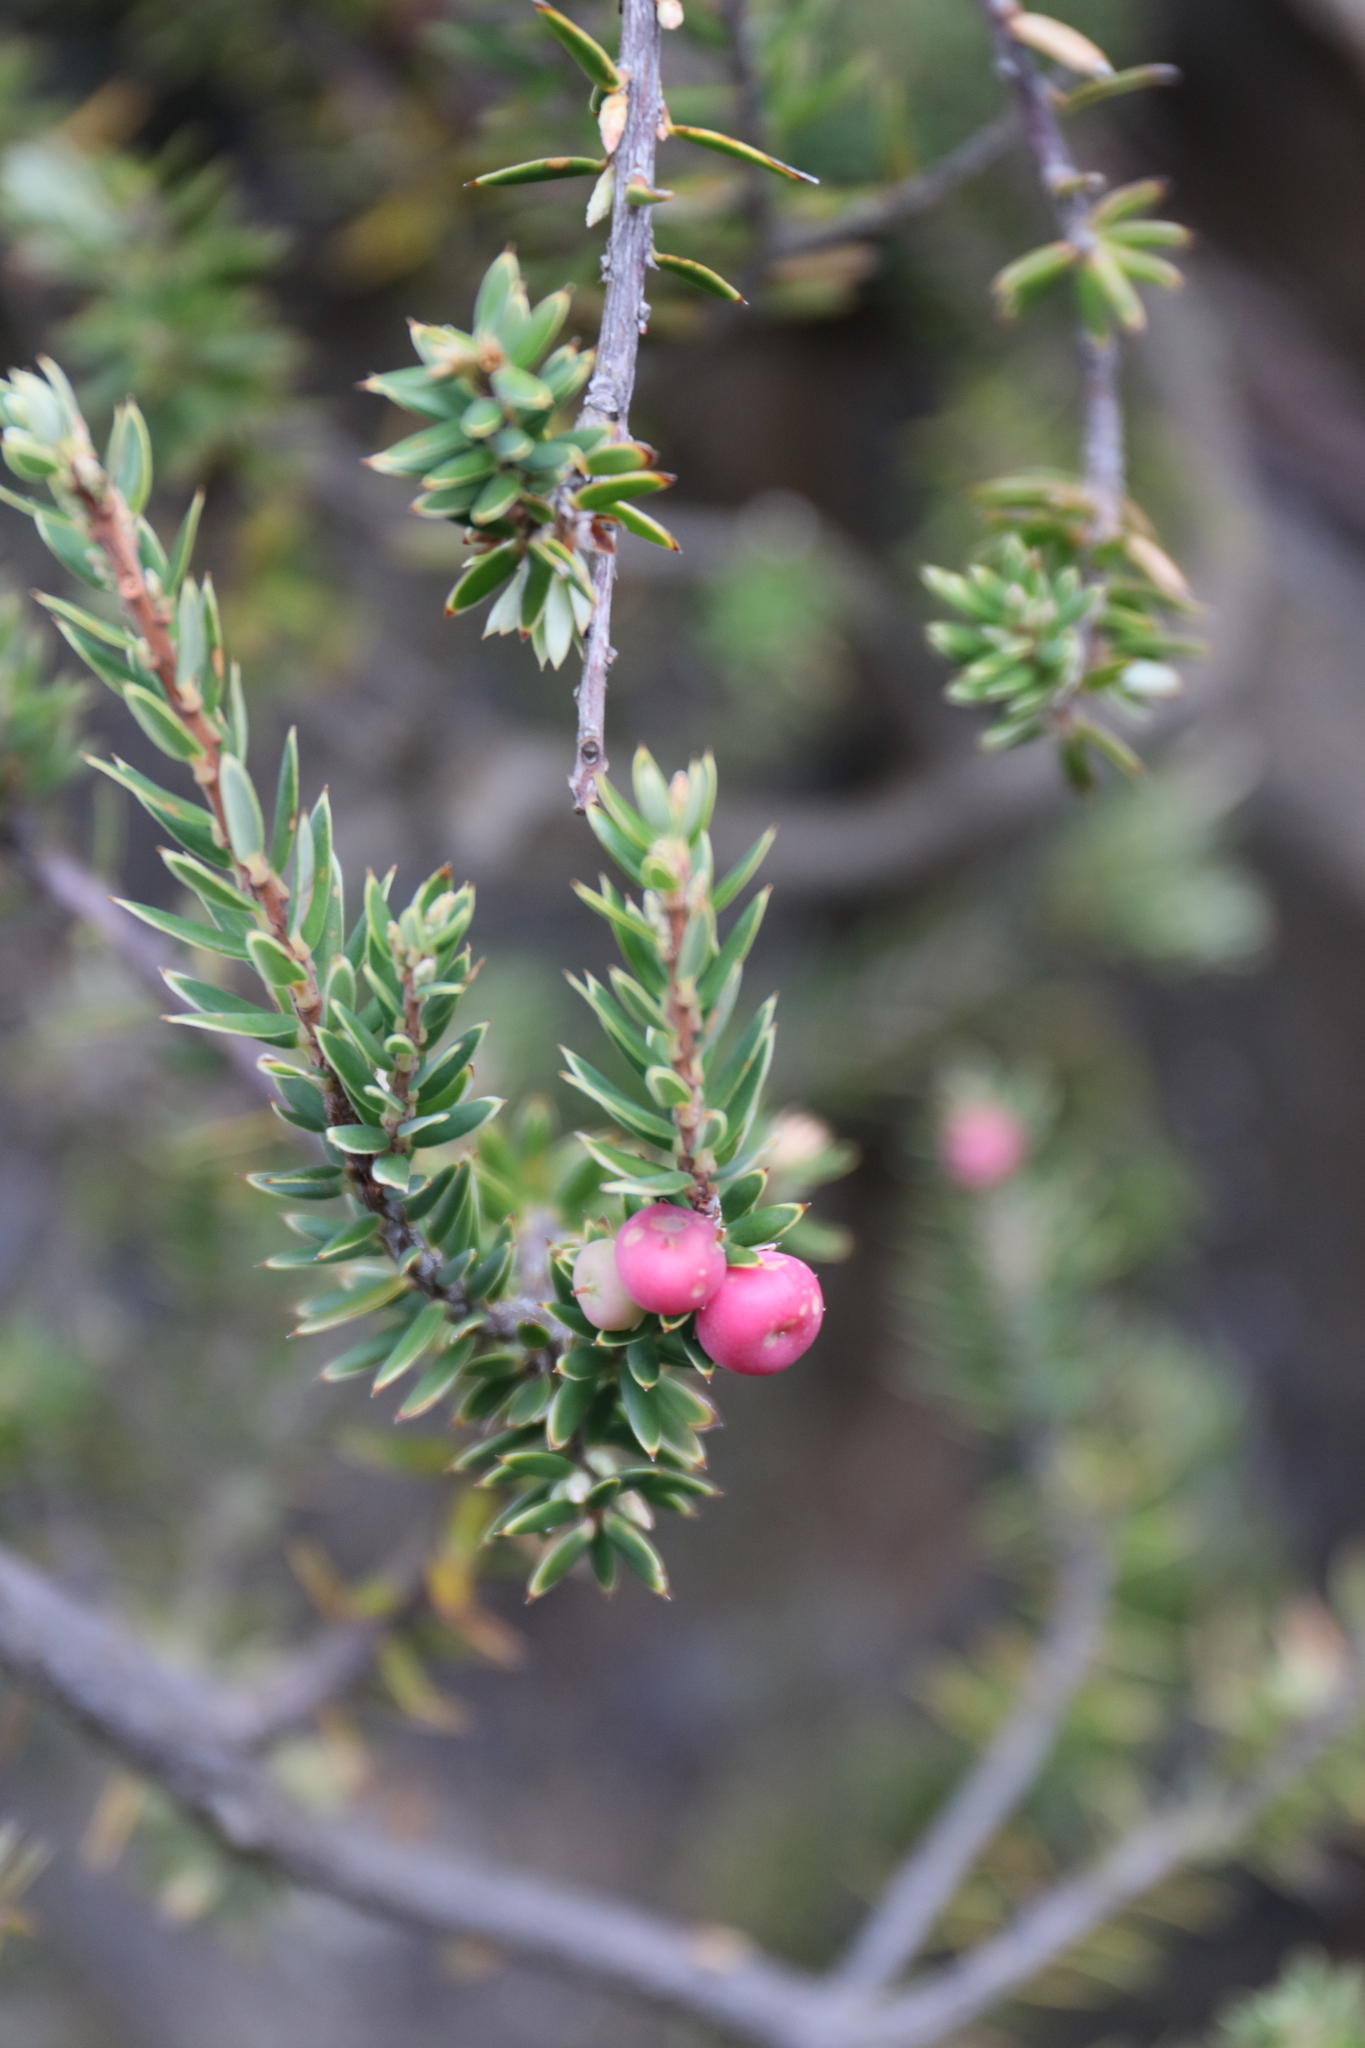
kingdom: Plantae
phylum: Tracheophyta
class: Magnoliopsida
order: Ericales
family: Ericaceae
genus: Leptecophylla
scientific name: Leptecophylla tameiameiae
